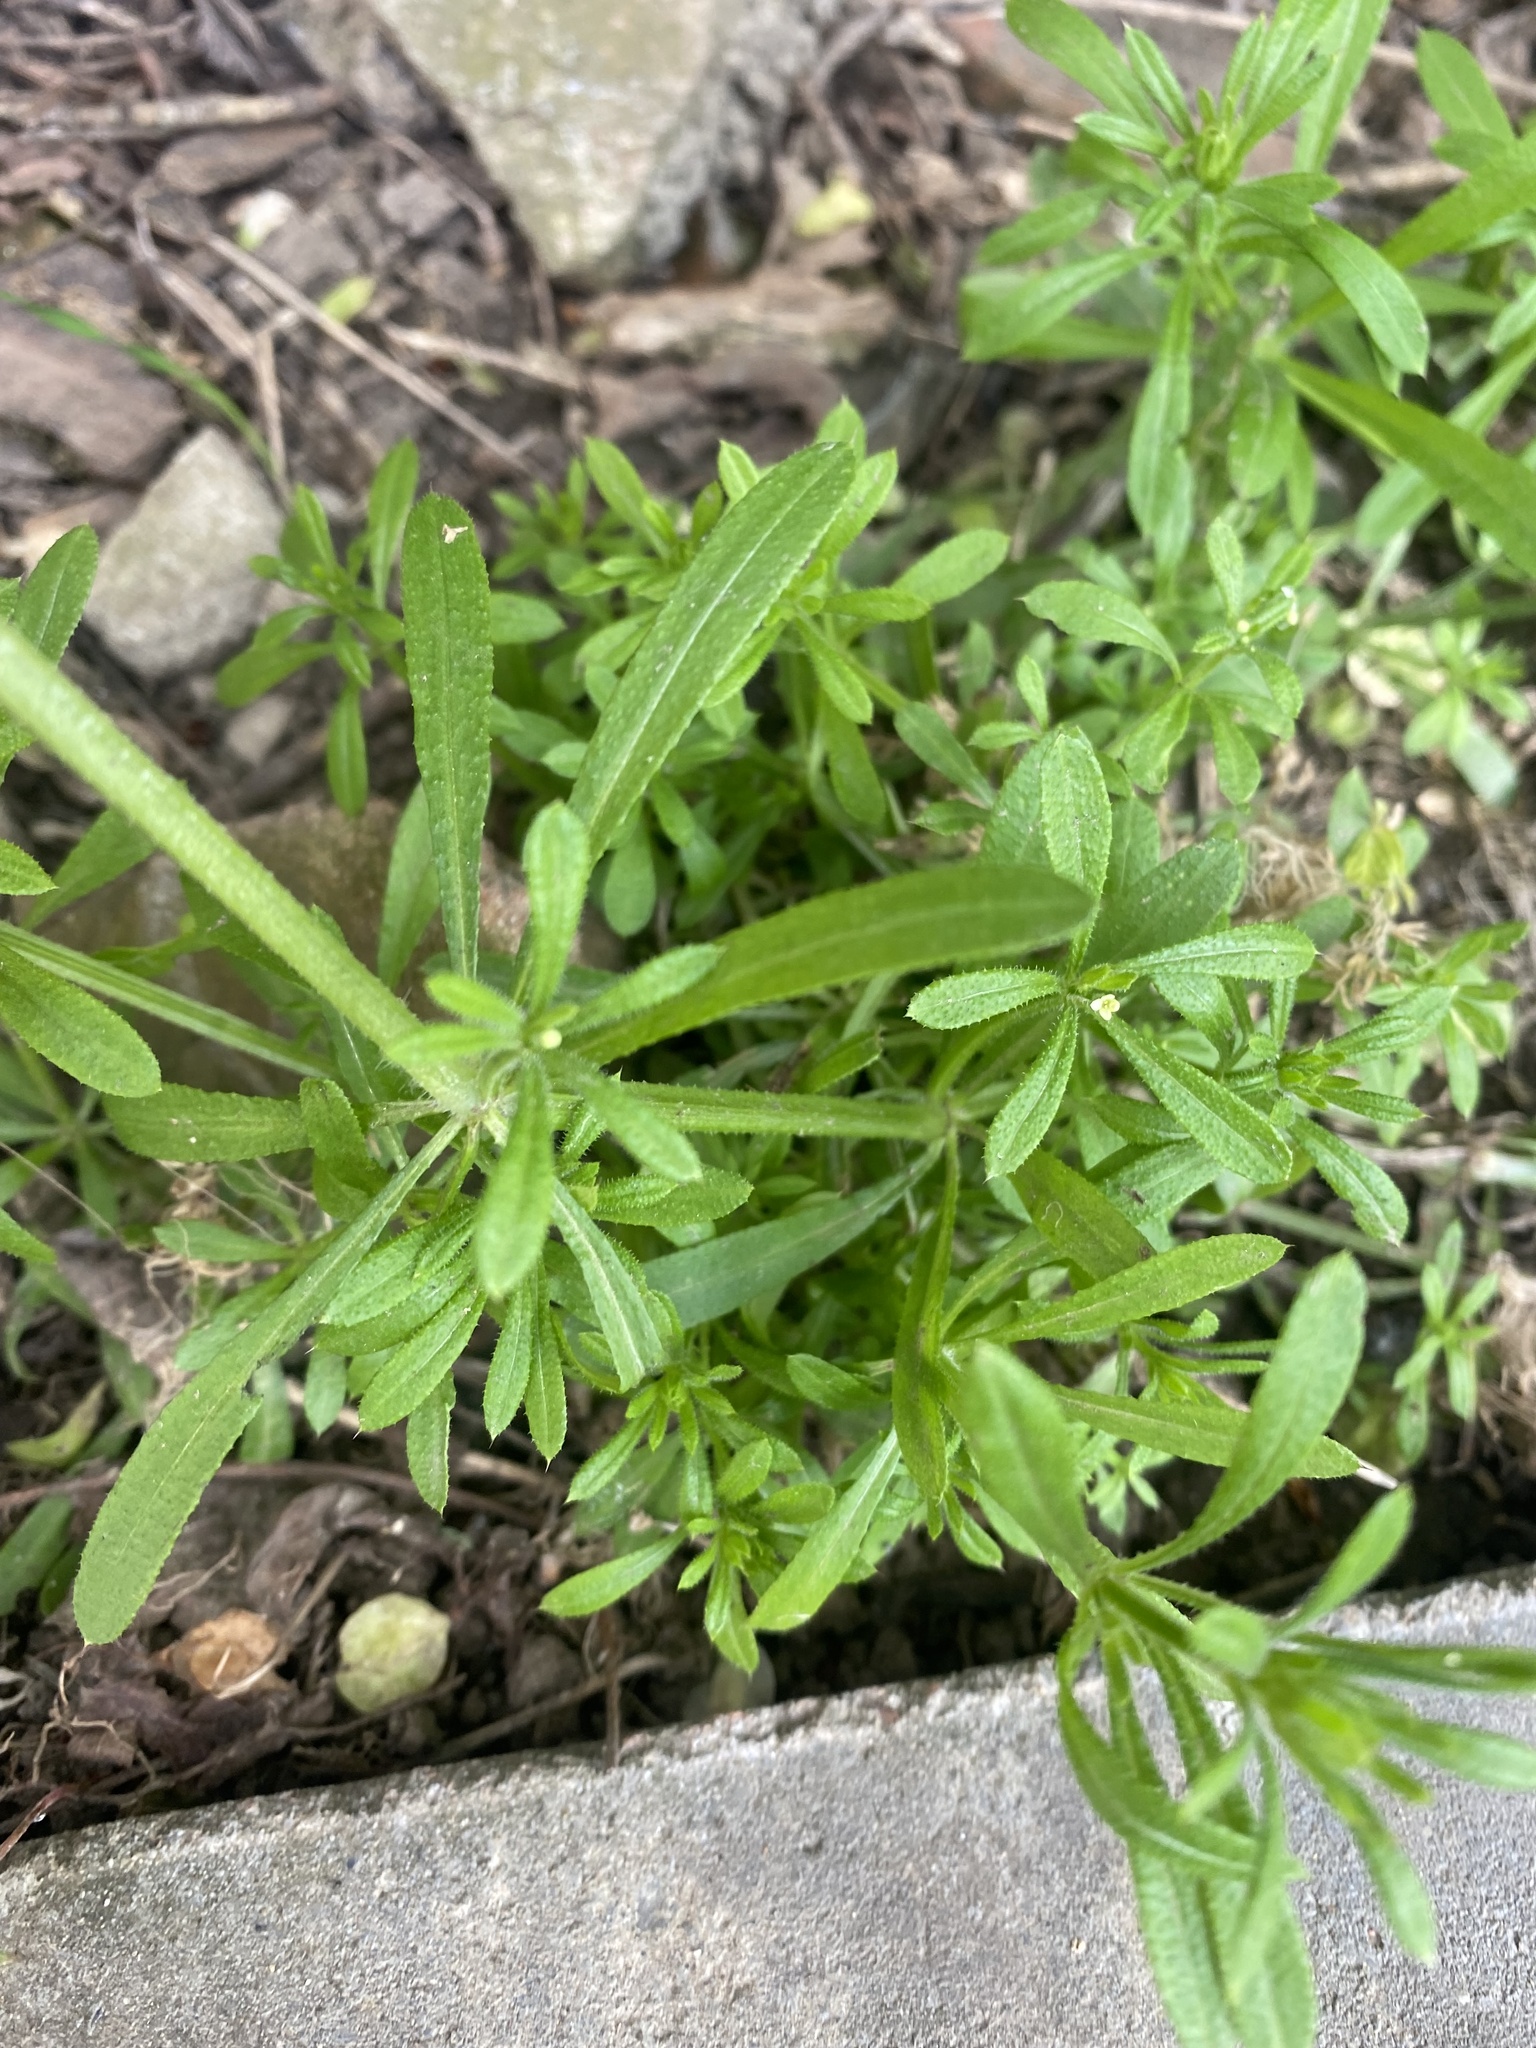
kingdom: Plantae
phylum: Tracheophyta
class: Magnoliopsida
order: Gentianales
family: Rubiaceae
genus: Galium
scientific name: Galium aparine
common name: Cleavers
